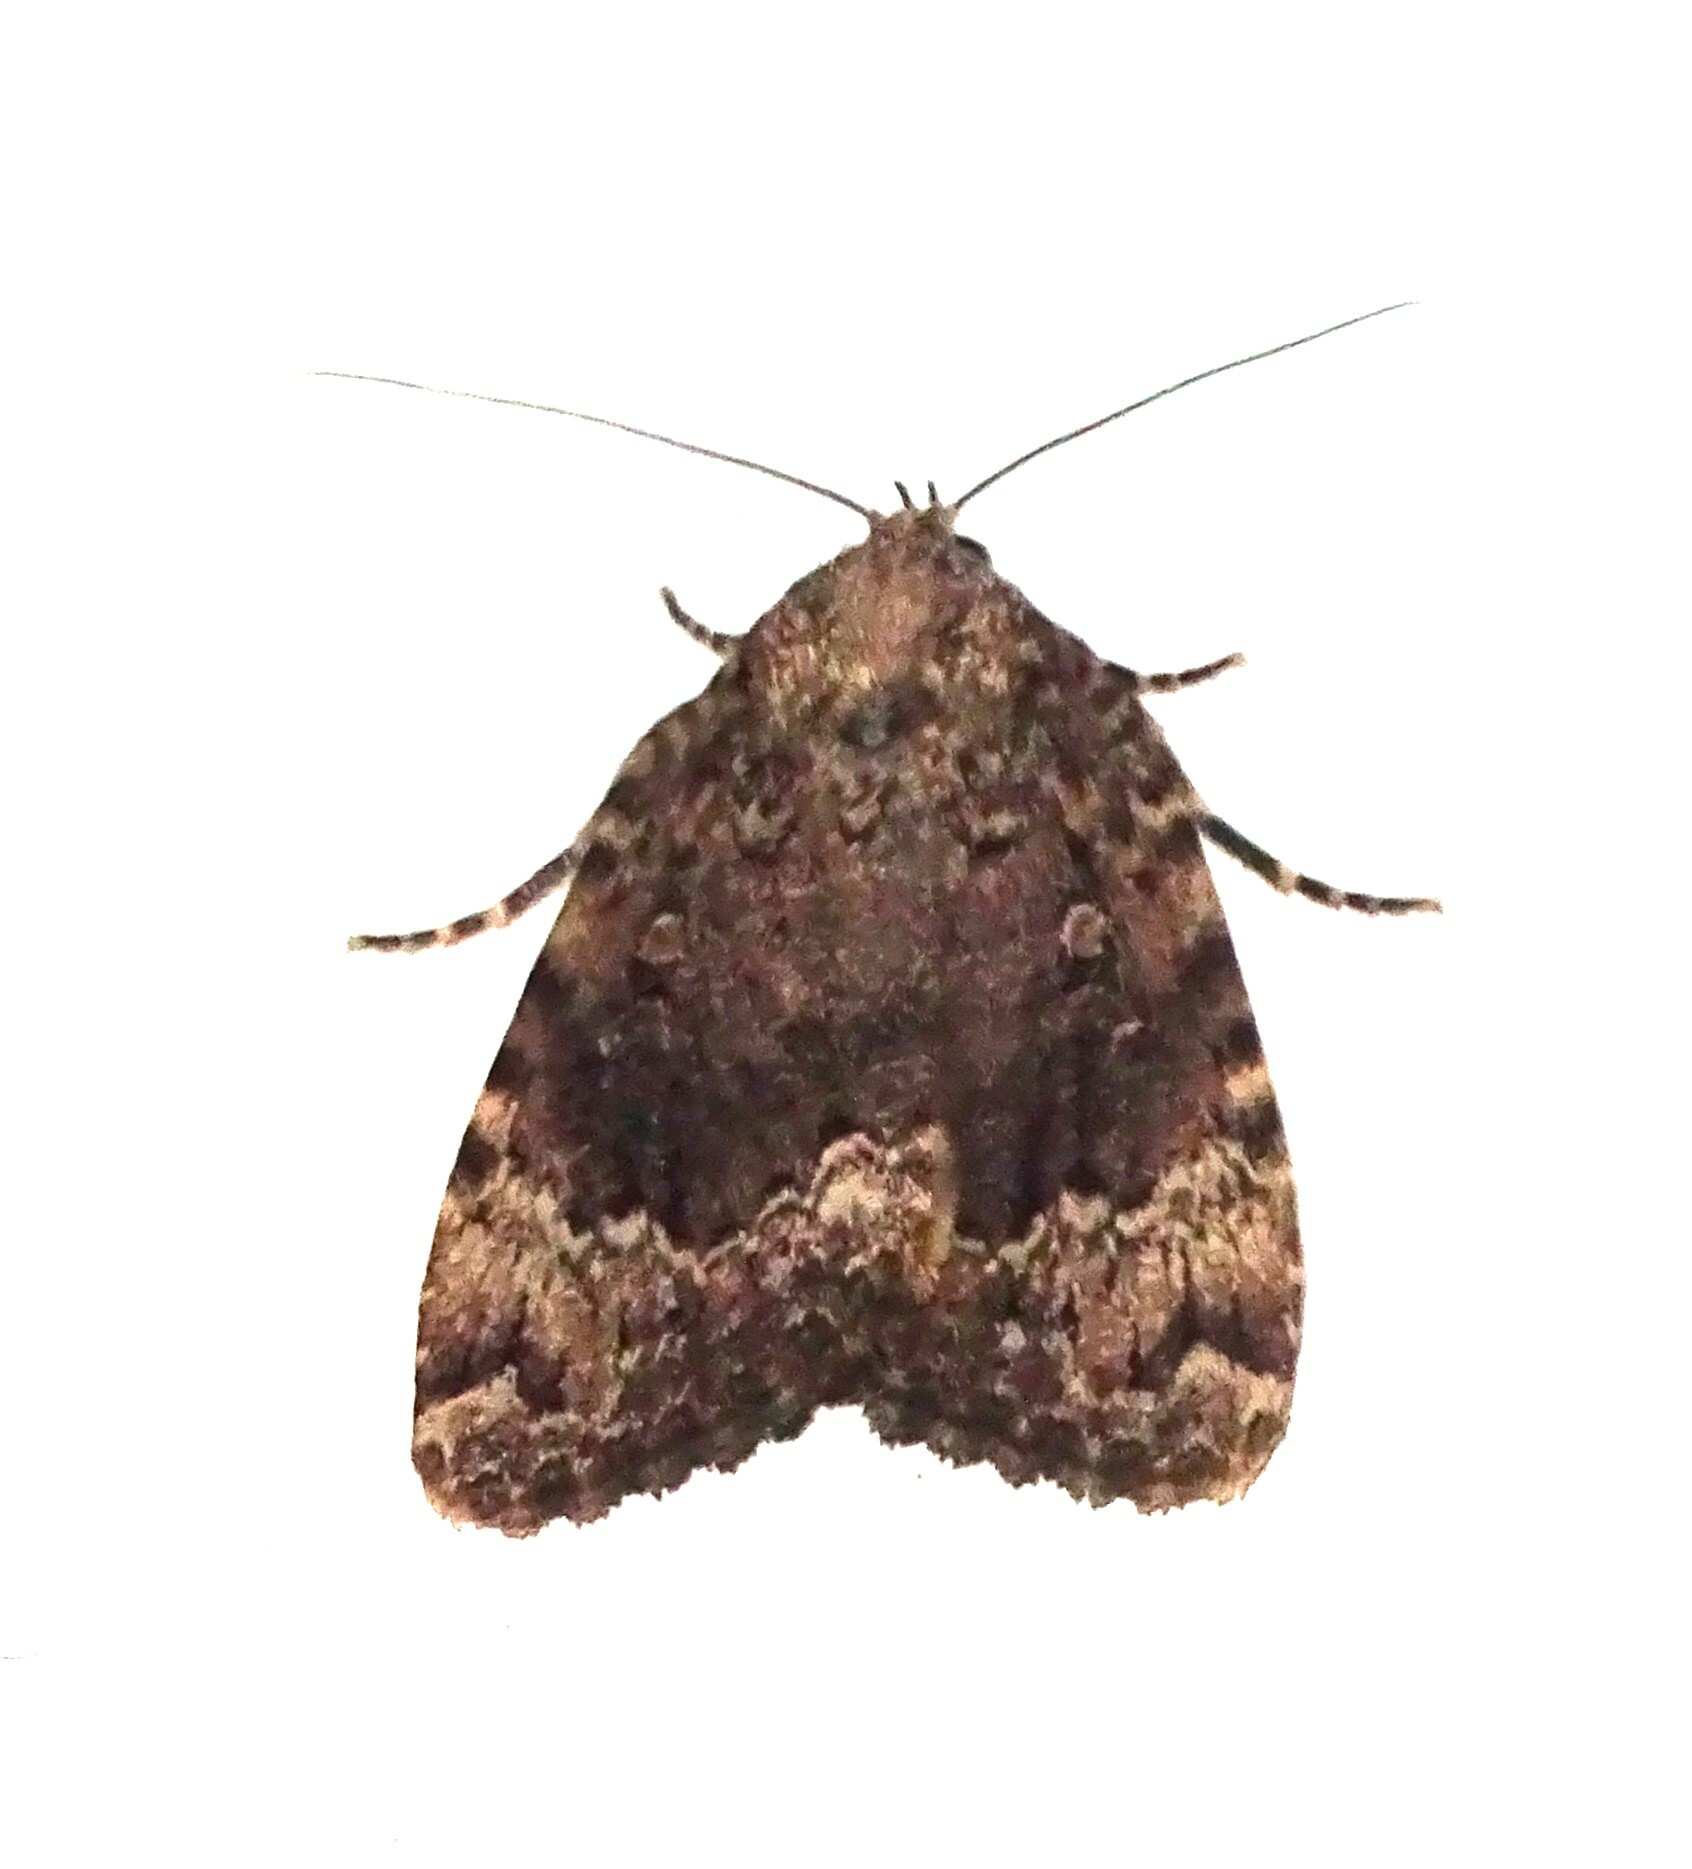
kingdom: Animalia
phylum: Arthropoda
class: Insecta
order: Lepidoptera
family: Noctuidae
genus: Amphipyra
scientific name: Amphipyra pyramidoides
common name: American copper underwing
